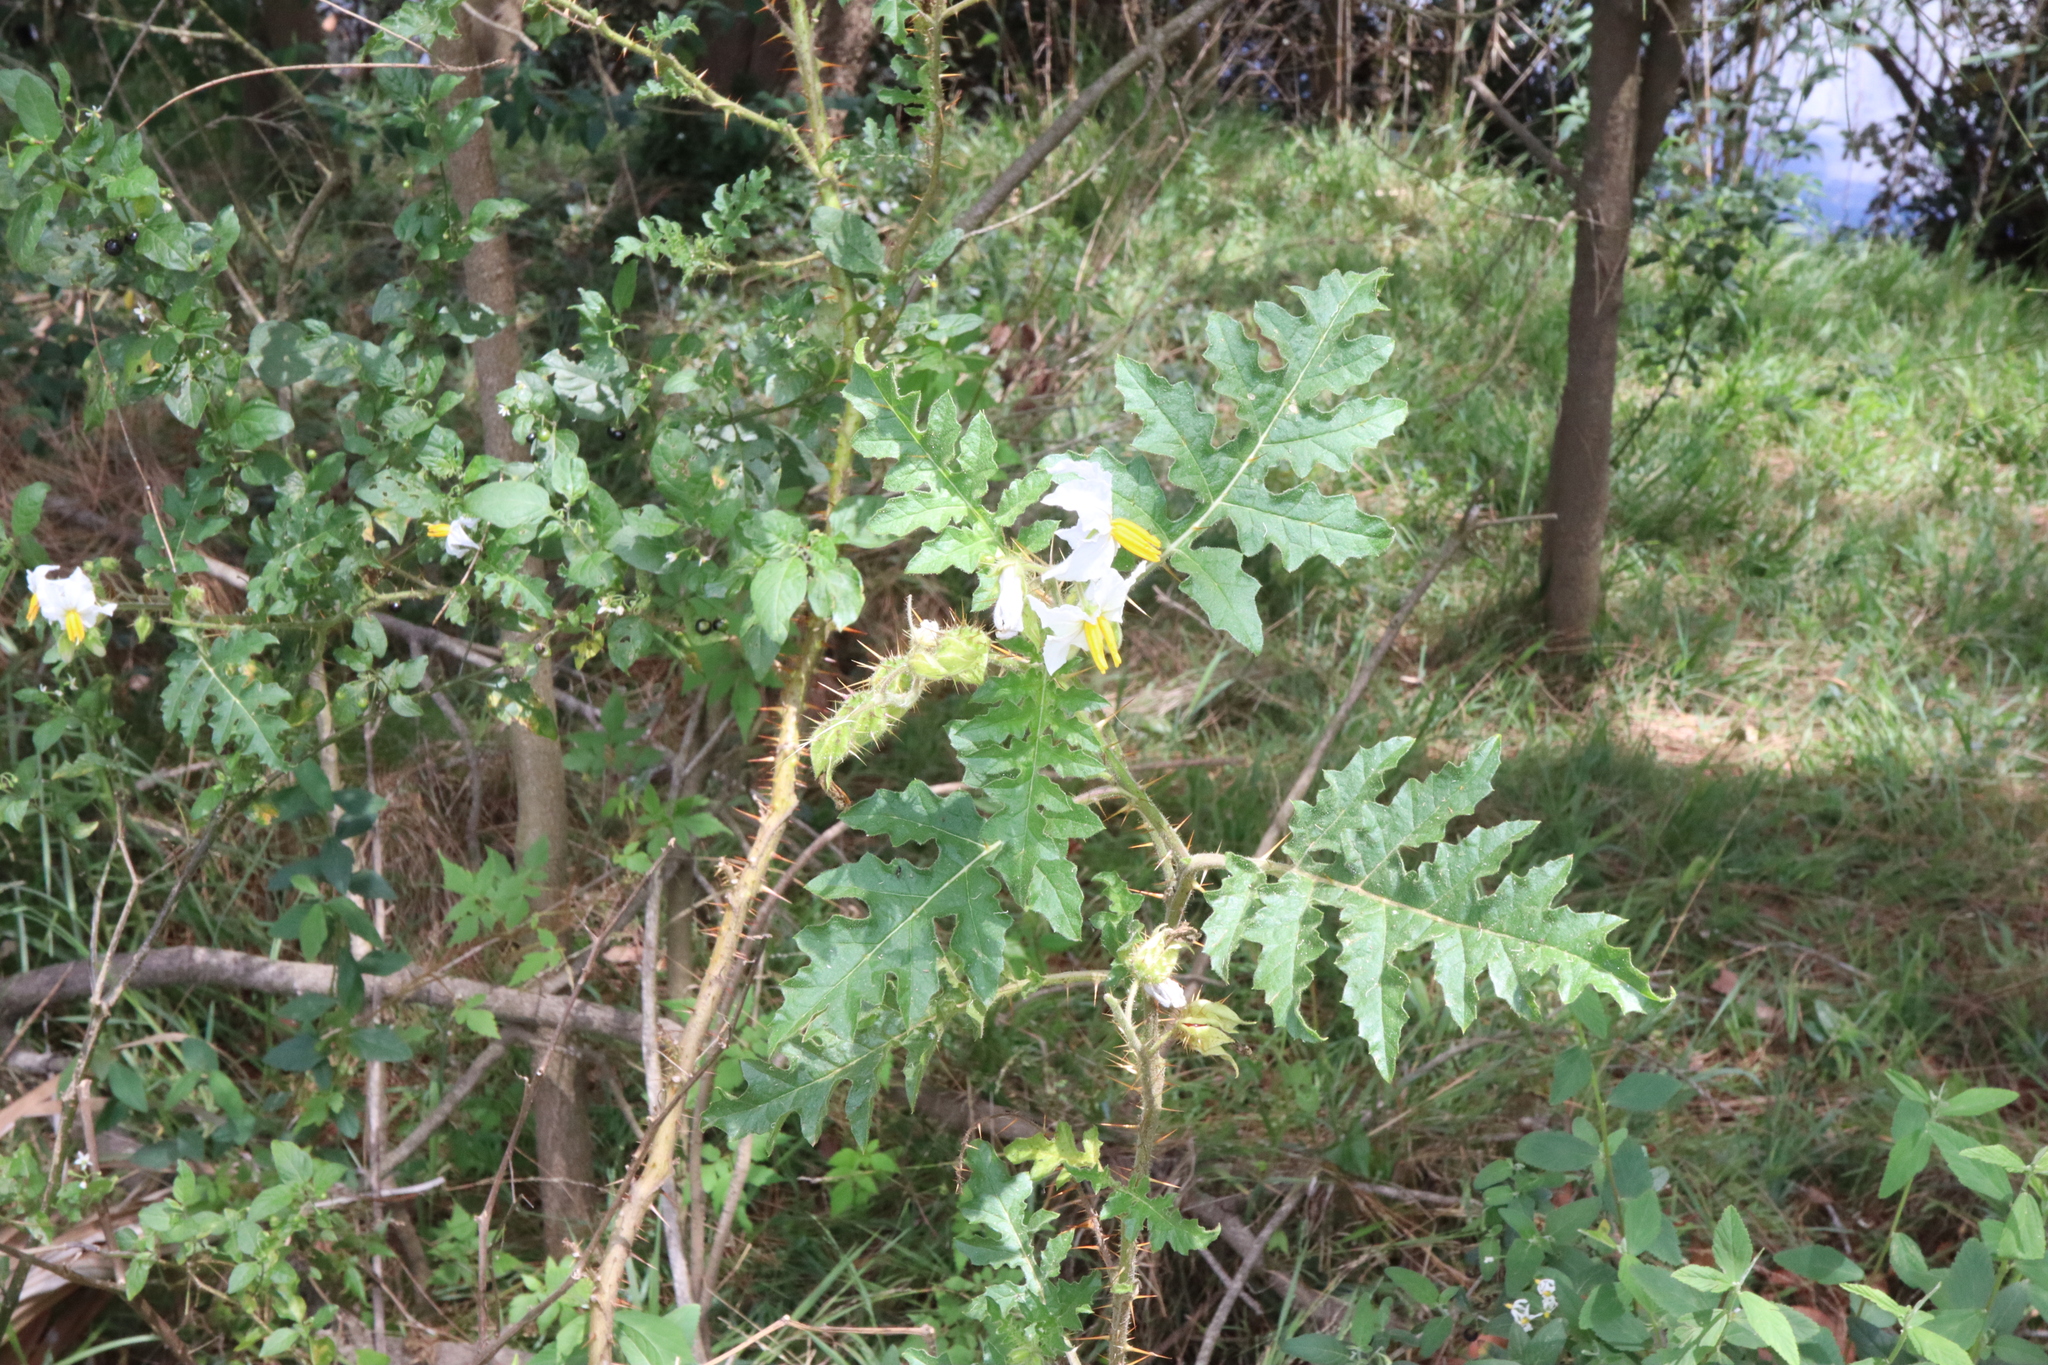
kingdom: Plantae
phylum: Tracheophyta
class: Magnoliopsida
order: Solanales
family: Solanaceae
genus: Solanum
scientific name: Solanum sisymbriifolium
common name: Red buffalo-bur
